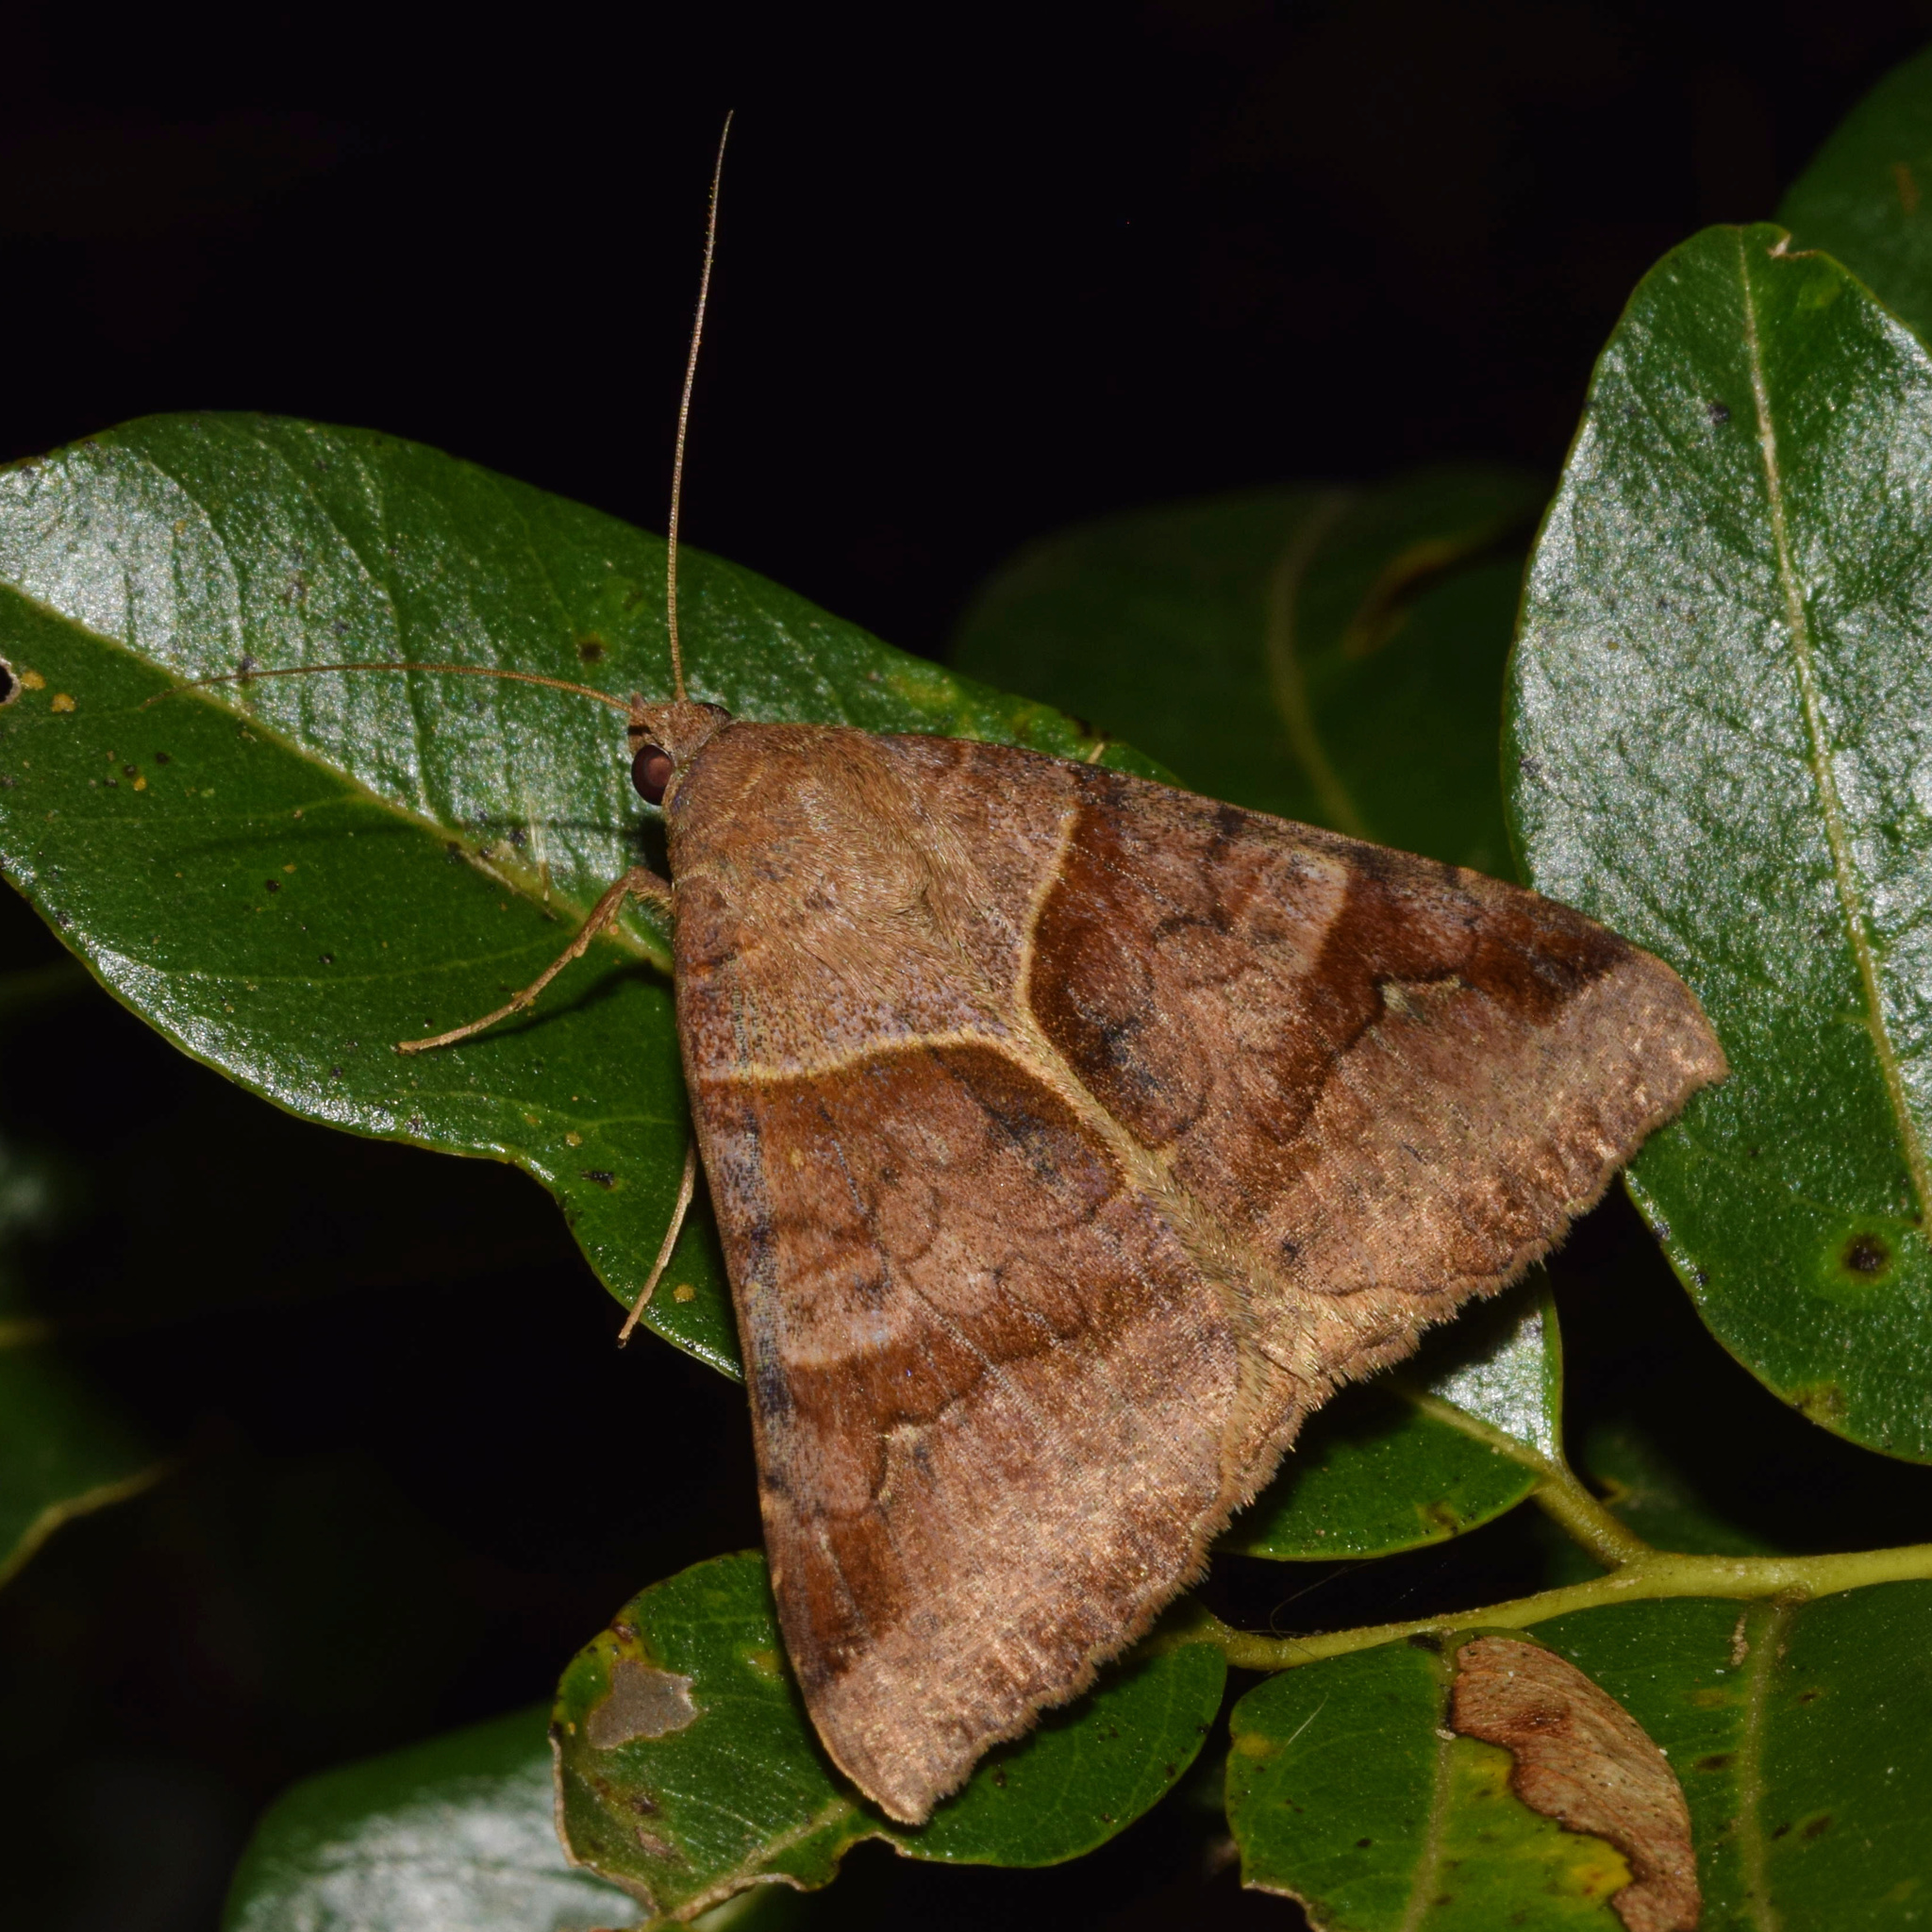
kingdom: Animalia
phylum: Arthropoda
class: Insecta
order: Lepidoptera
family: Erebidae
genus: Mocis
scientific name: Mocis mayeri
